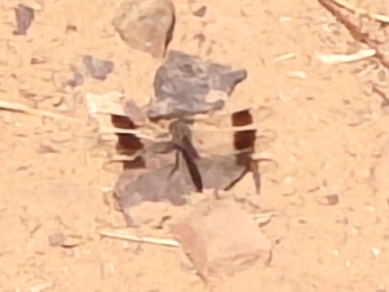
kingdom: Animalia
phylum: Arthropoda
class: Insecta
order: Odonata
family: Libellulidae
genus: Brachythemis
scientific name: Brachythemis impartita
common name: Banded groundling
